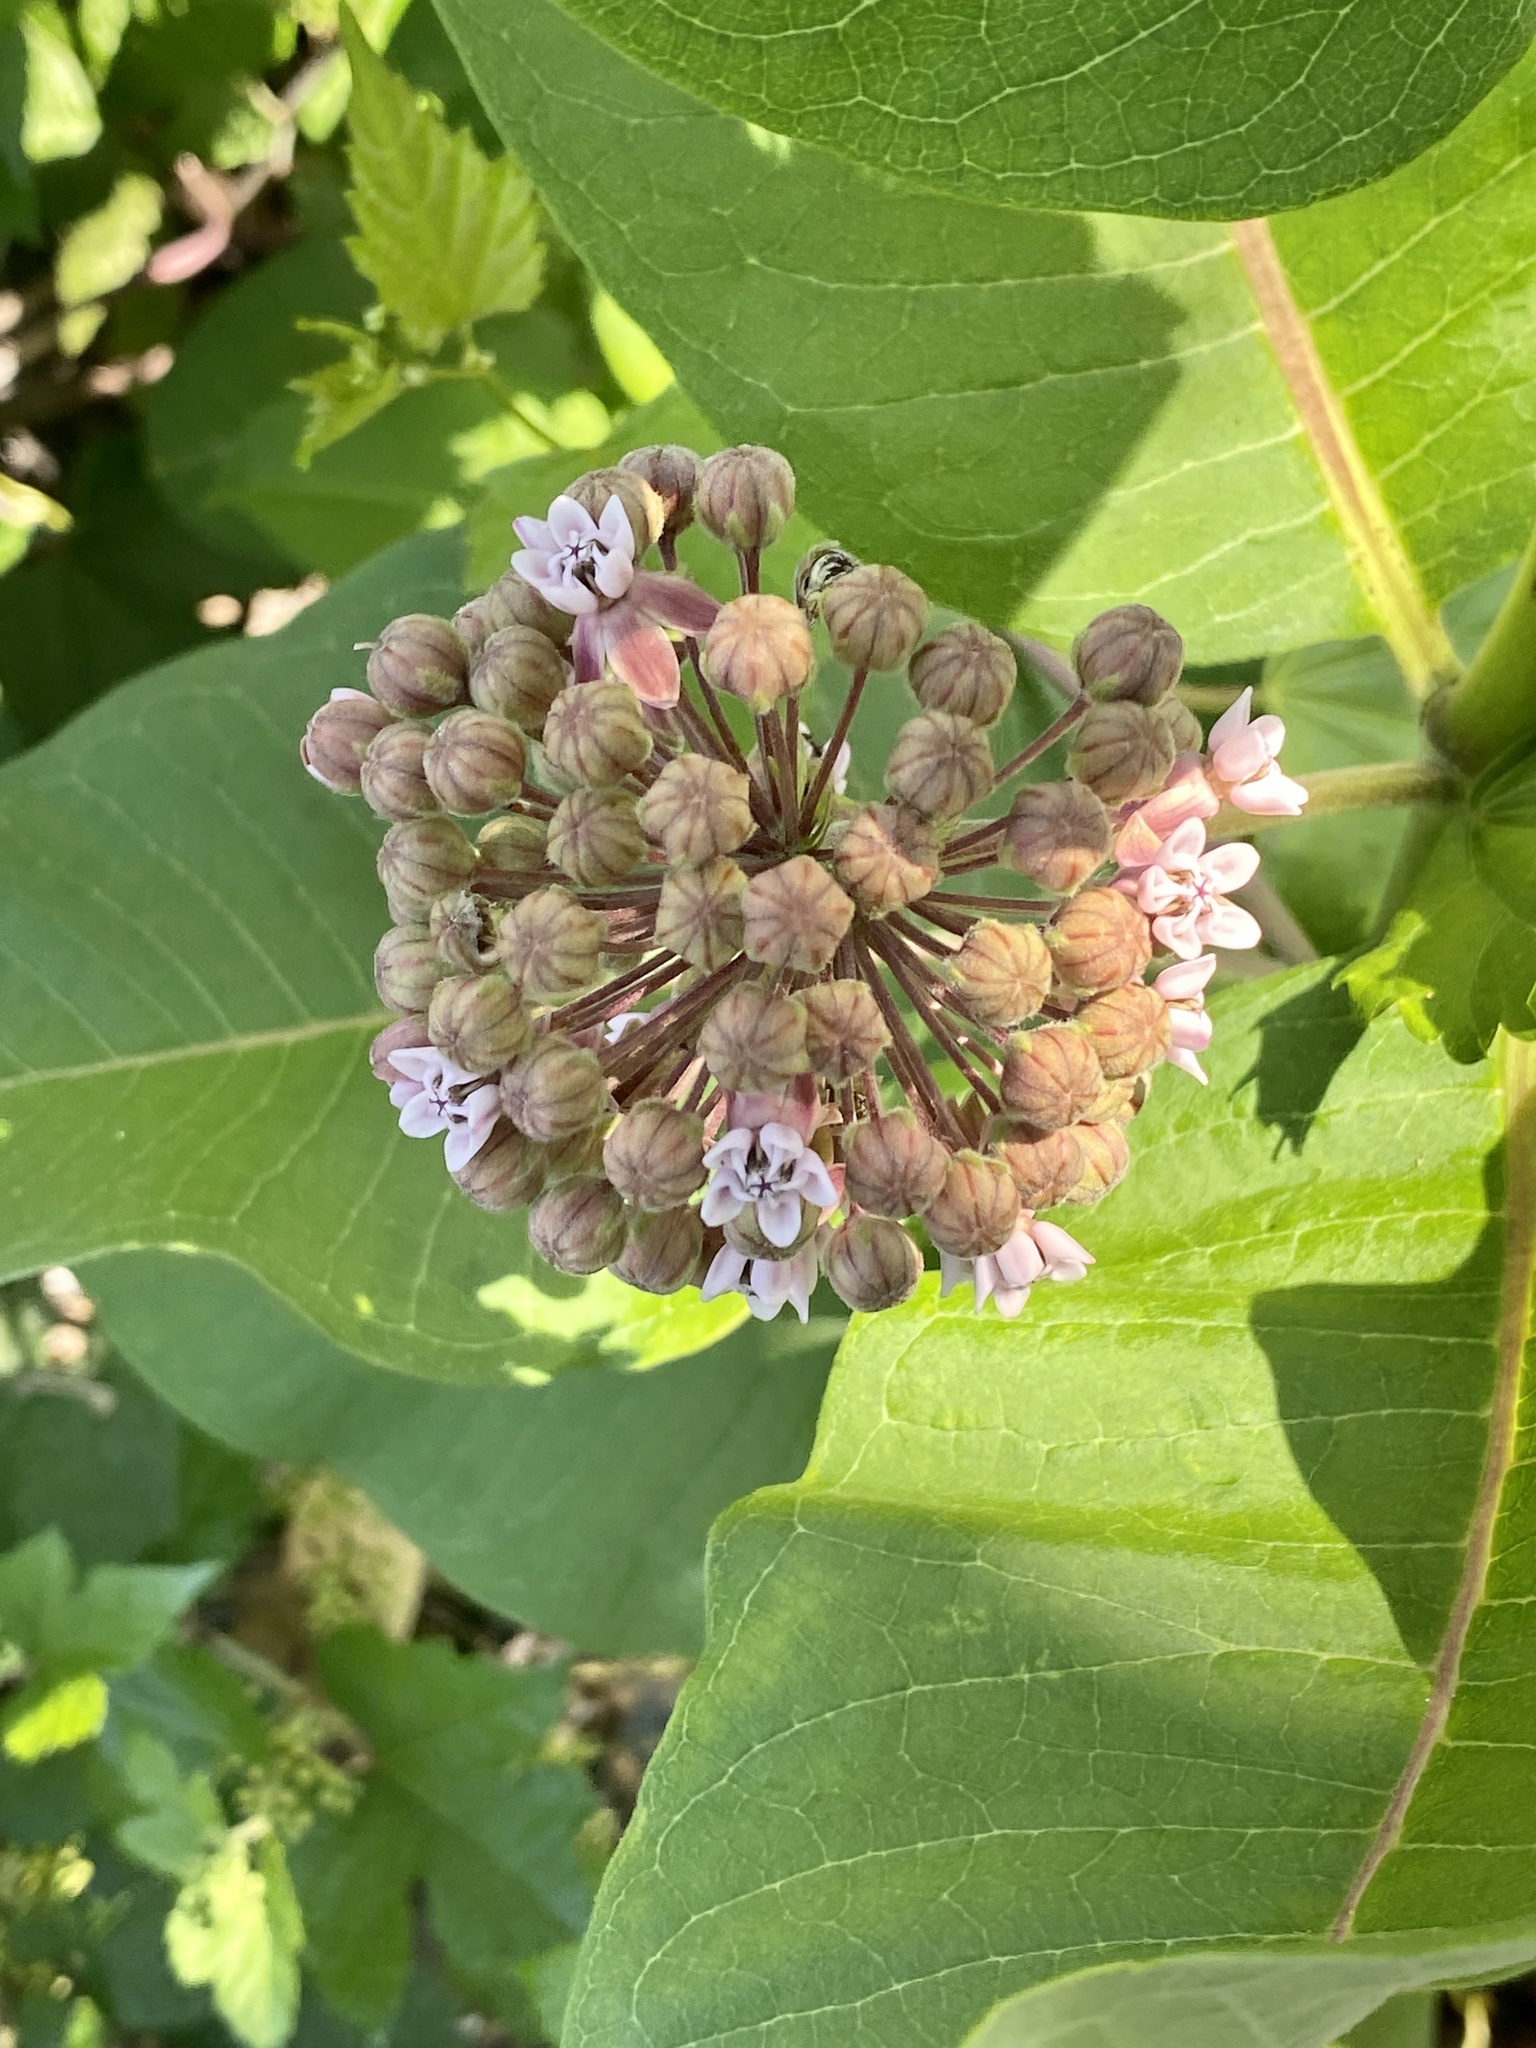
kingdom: Plantae
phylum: Tracheophyta
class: Magnoliopsida
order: Gentianales
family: Apocynaceae
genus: Asclepias
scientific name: Asclepias syriaca
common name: Common milkweed
